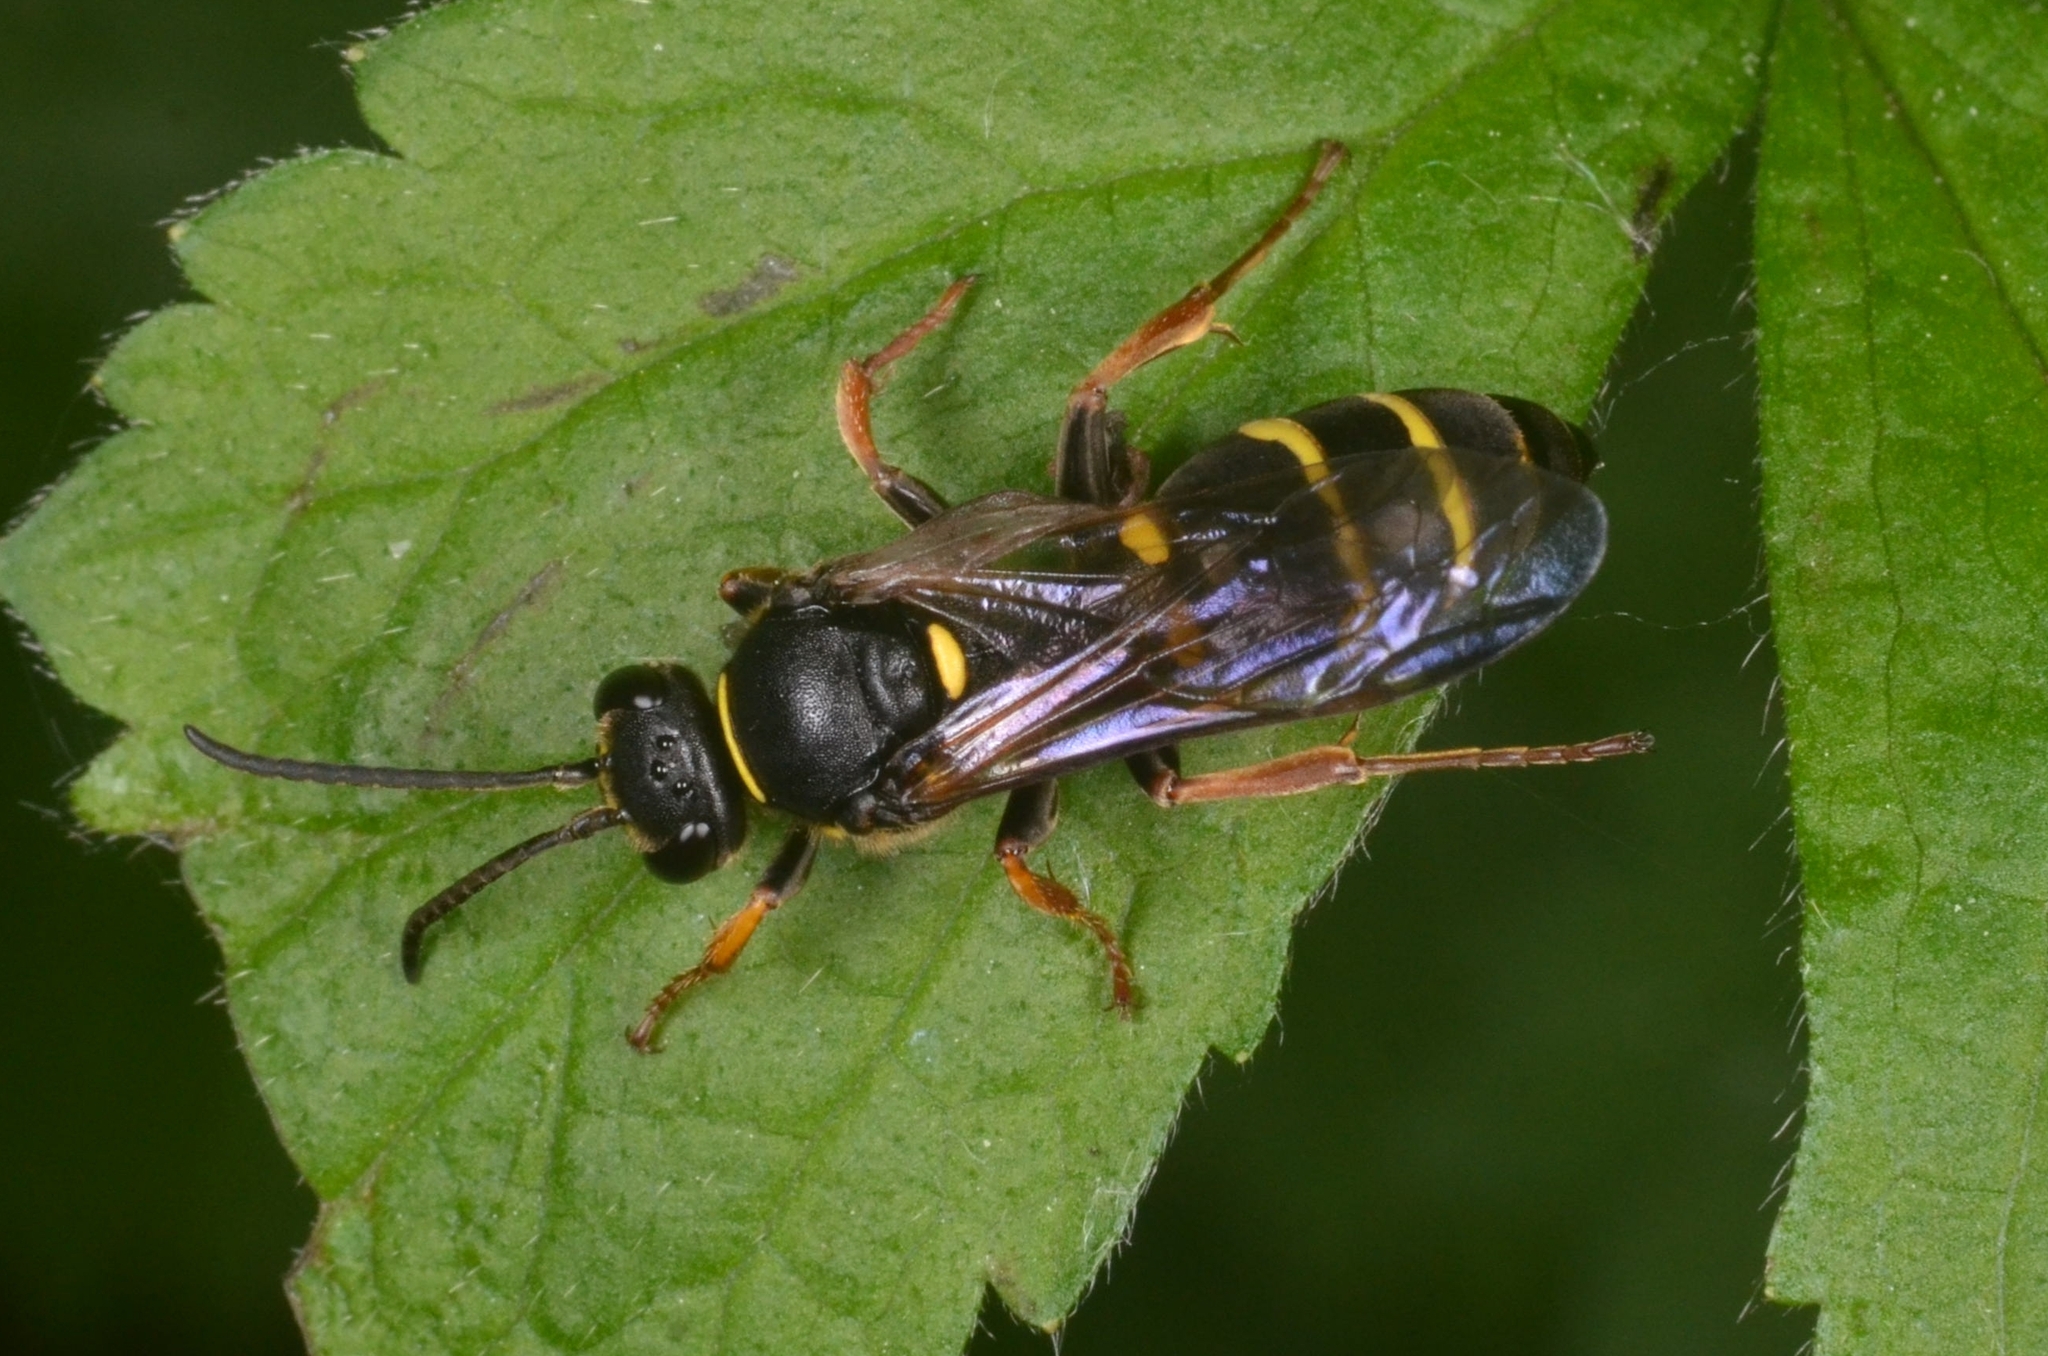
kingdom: Animalia
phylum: Arthropoda
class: Insecta
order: Hymenoptera
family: Crabronidae
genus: Argogorytes
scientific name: Argogorytes mystaceus
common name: Field digger wasp
